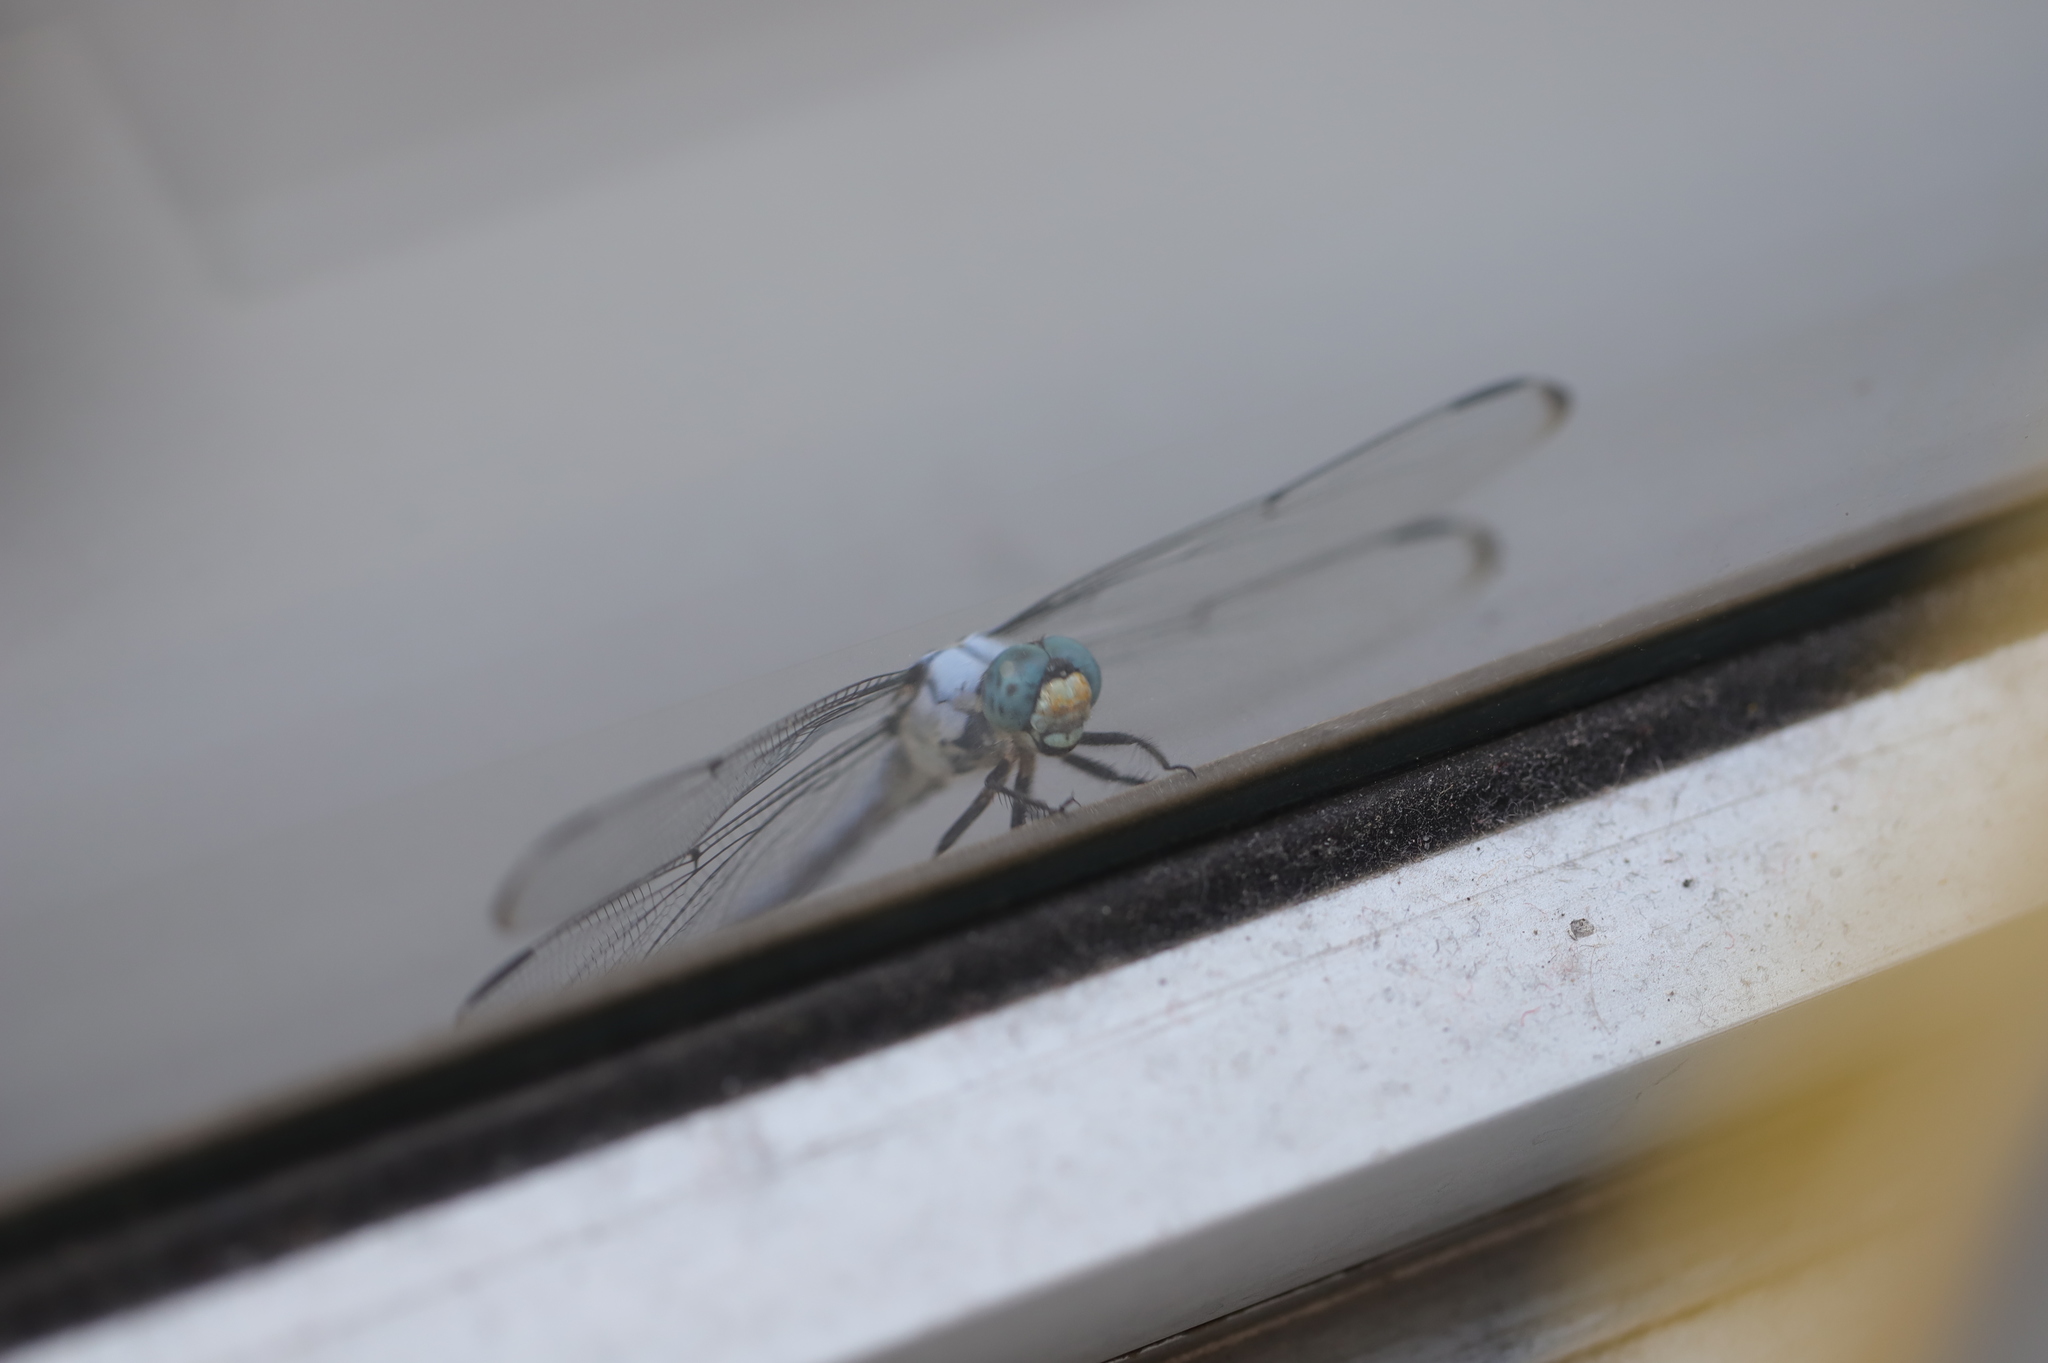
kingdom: Animalia
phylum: Arthropoda
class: Insecta
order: Odonata
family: Libellulidae
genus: Libellula
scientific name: Libellula vibrans
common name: Great blue skimmer
